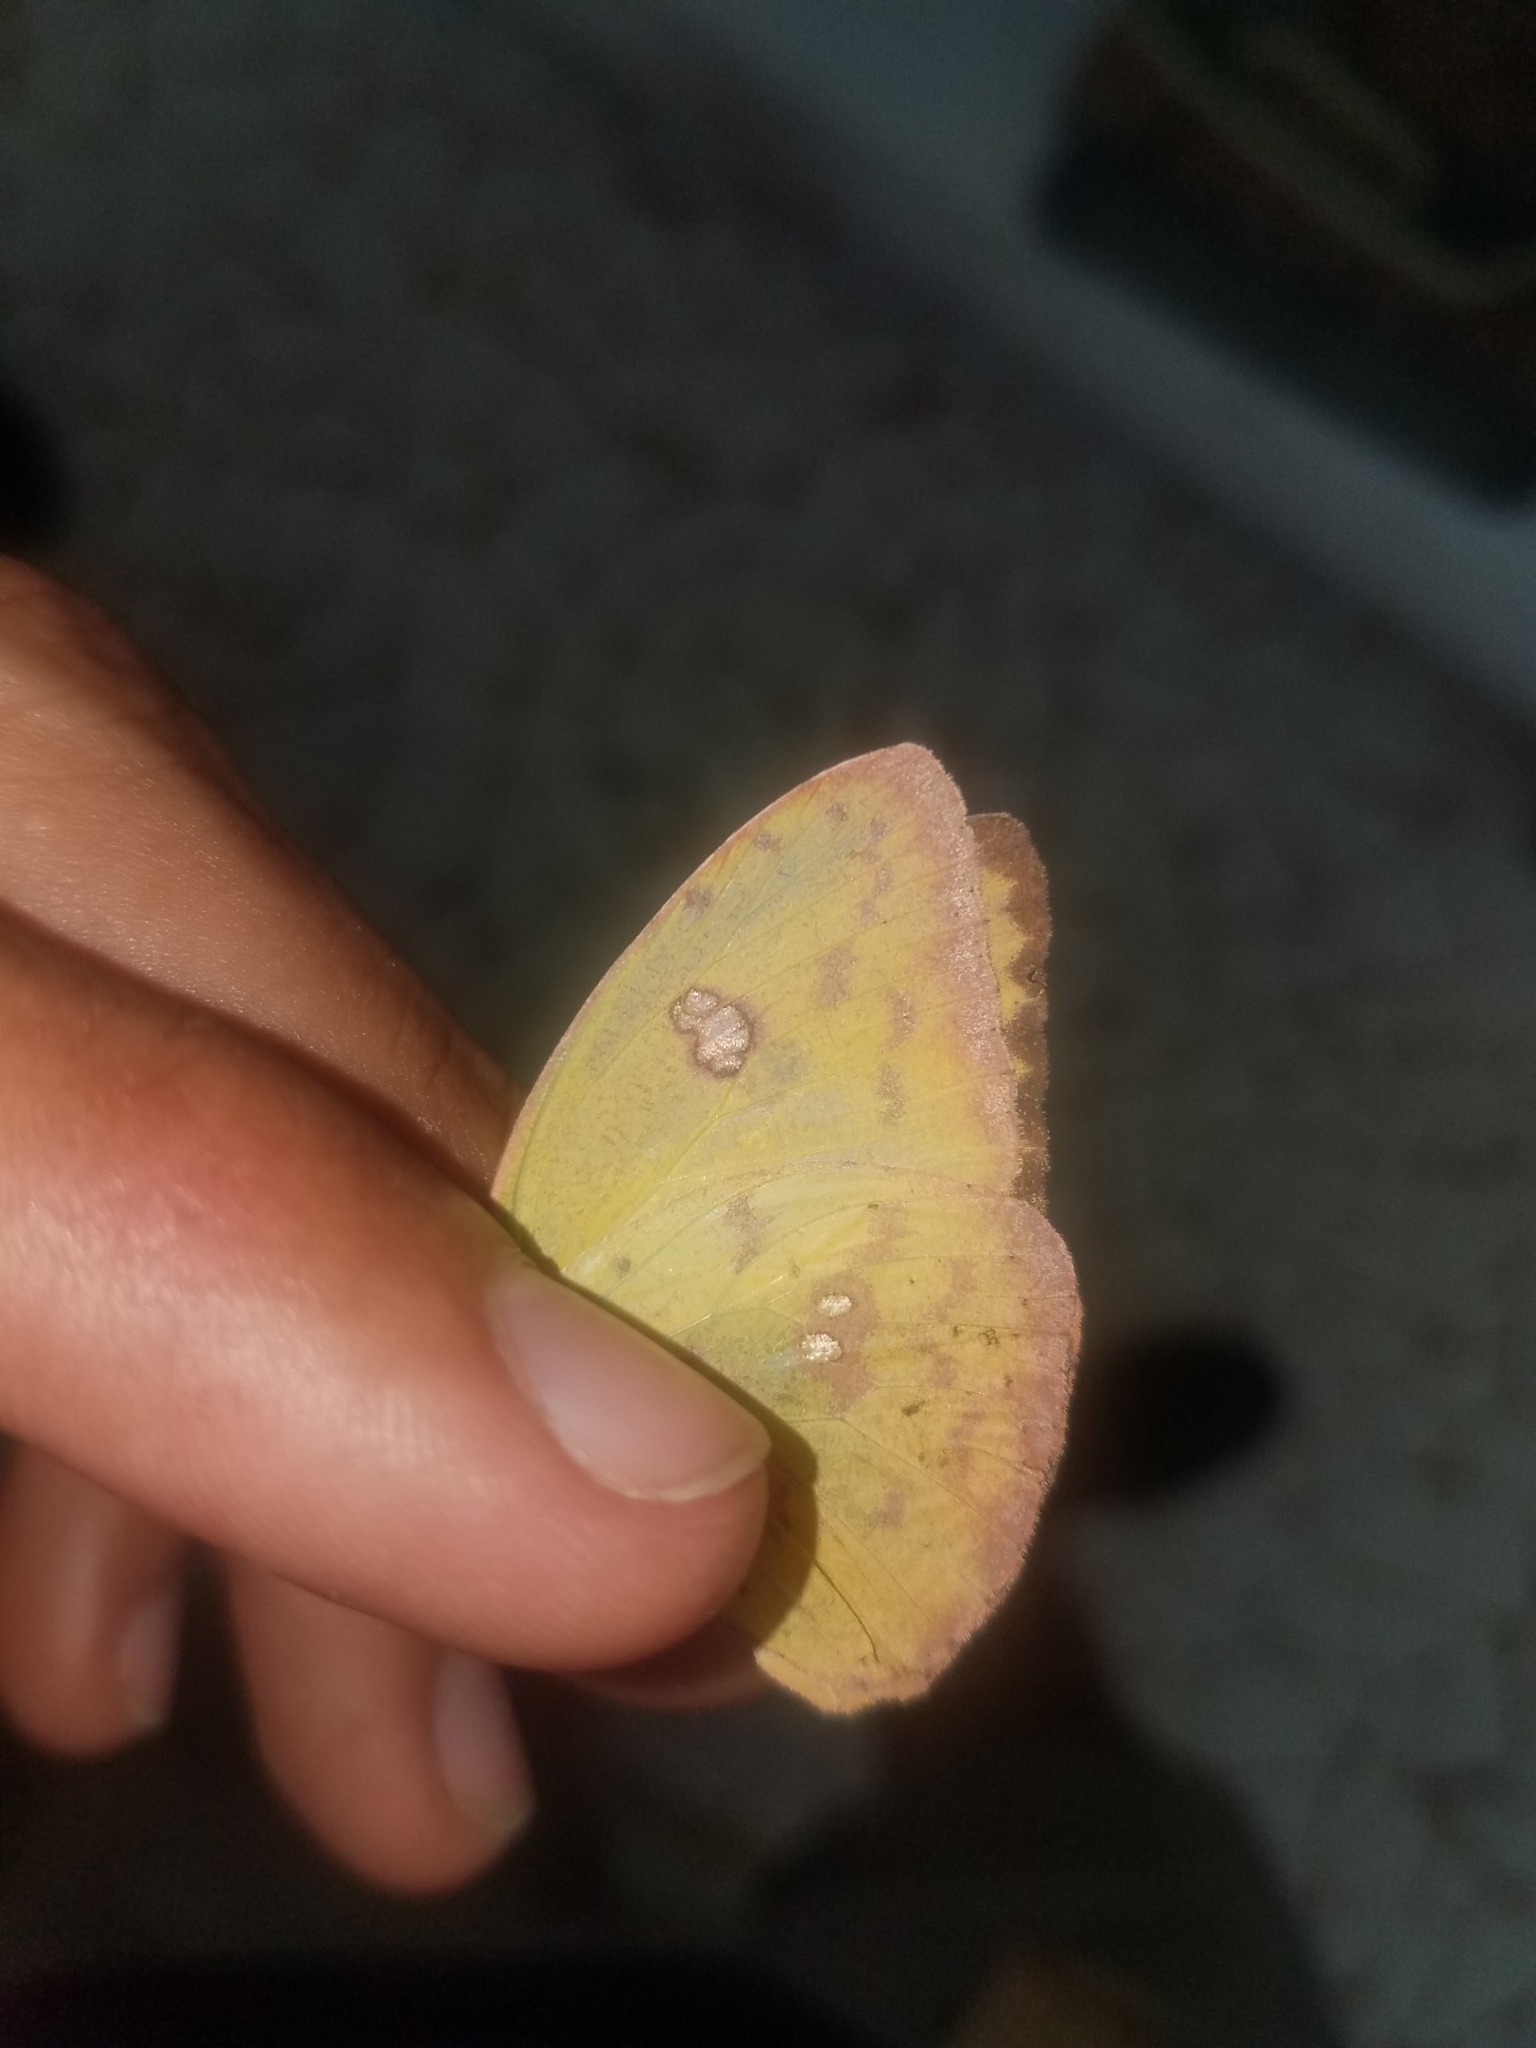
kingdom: Animalia
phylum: Arthropoda
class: Insecta
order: Lepidoptera
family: Pieridae
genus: Phoebis
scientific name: Phoebis sennae
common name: Cloudless sulphur
